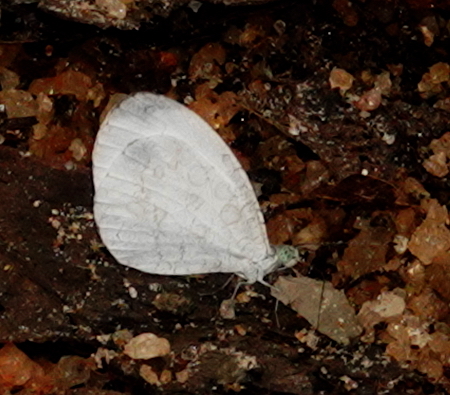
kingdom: Animalia
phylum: Arthropoda
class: Insecta
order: Lepidoptera
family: Pieridae
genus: Leptosia
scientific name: Leptosia nina
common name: Psyche
